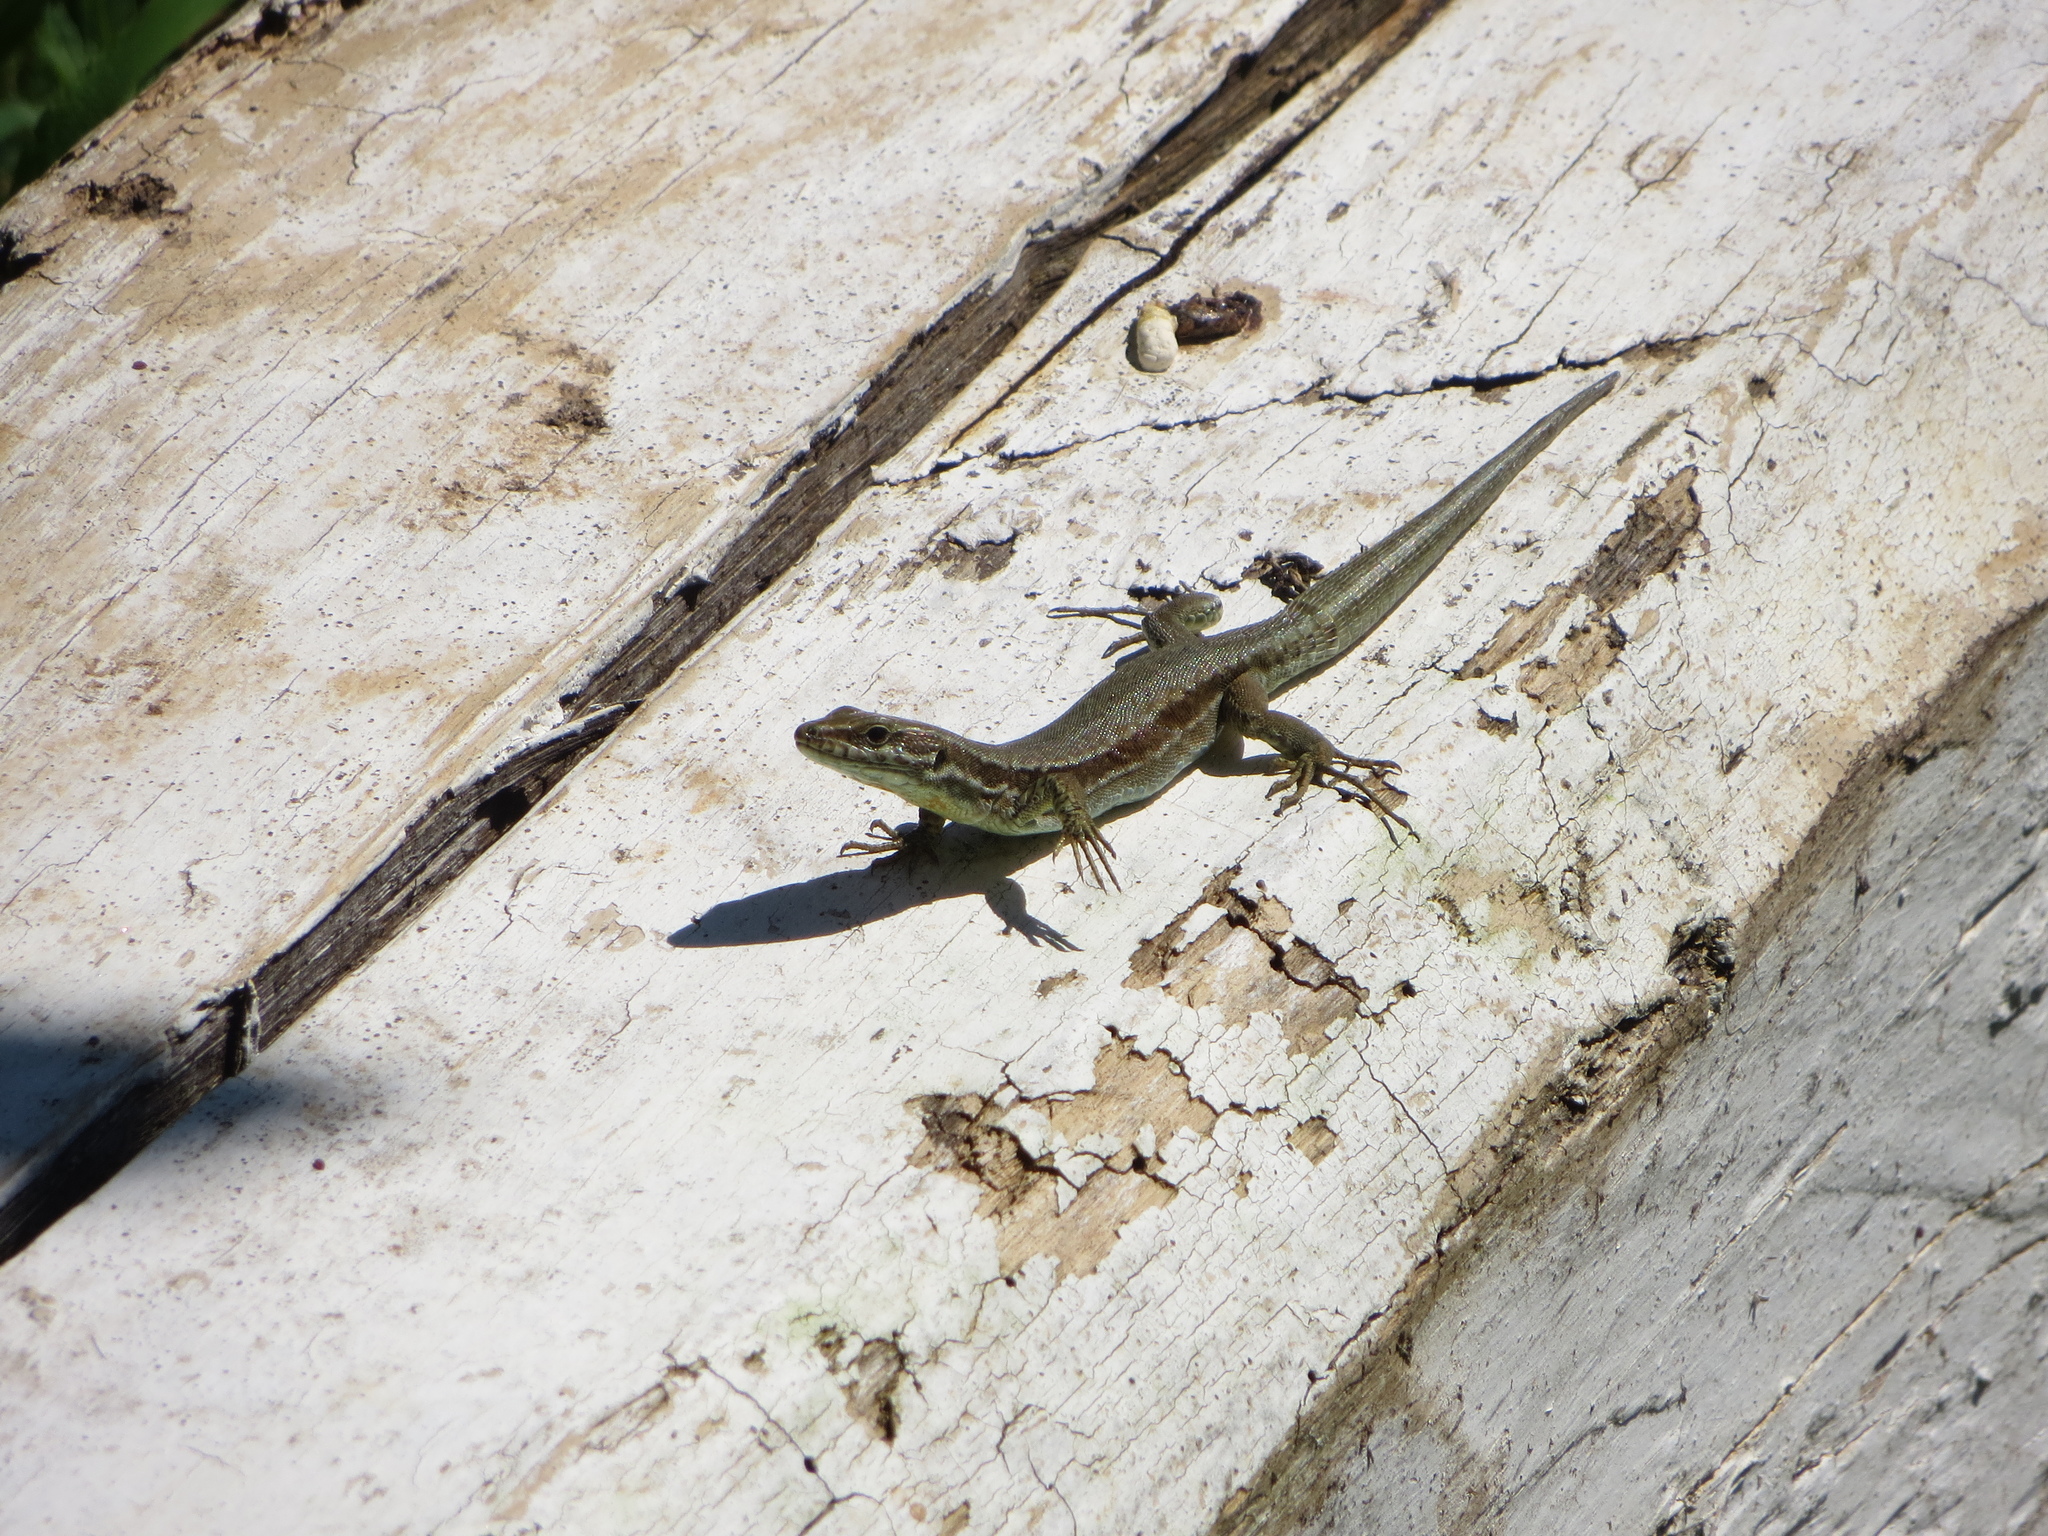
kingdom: Animalia
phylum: Chordata
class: Squamata
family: Lacertidae
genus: Podarcis
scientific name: Podarcis muralis
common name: Common wall lizard
